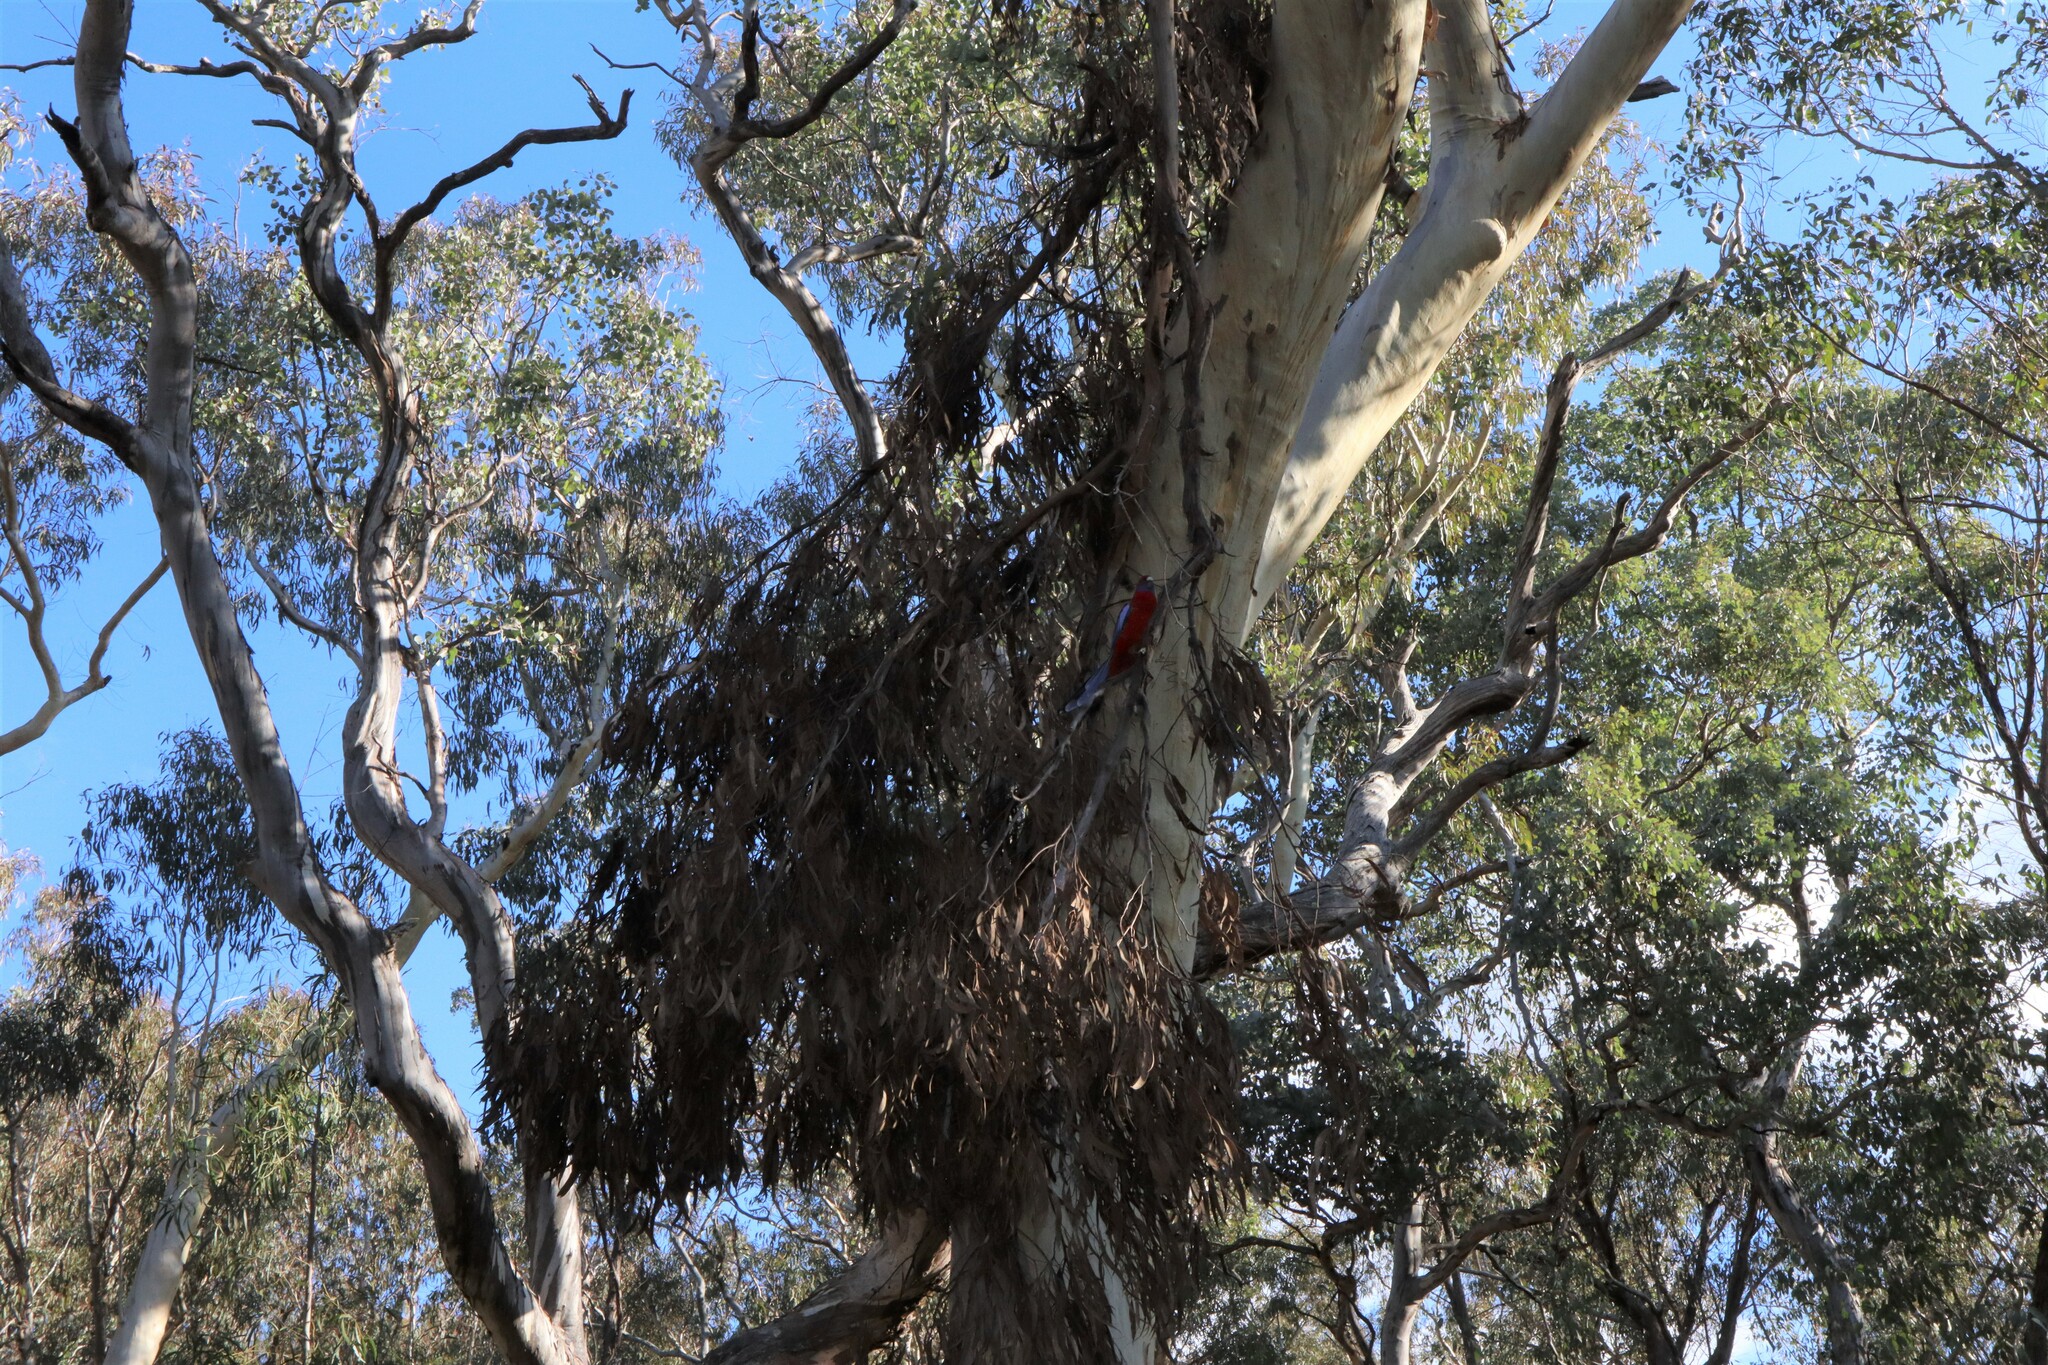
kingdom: Animalia
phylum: Chordata
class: Aves
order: Psittaciformes
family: Psittacidae
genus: Platycercus
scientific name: Platycercus elegans
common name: Crimson rosella
